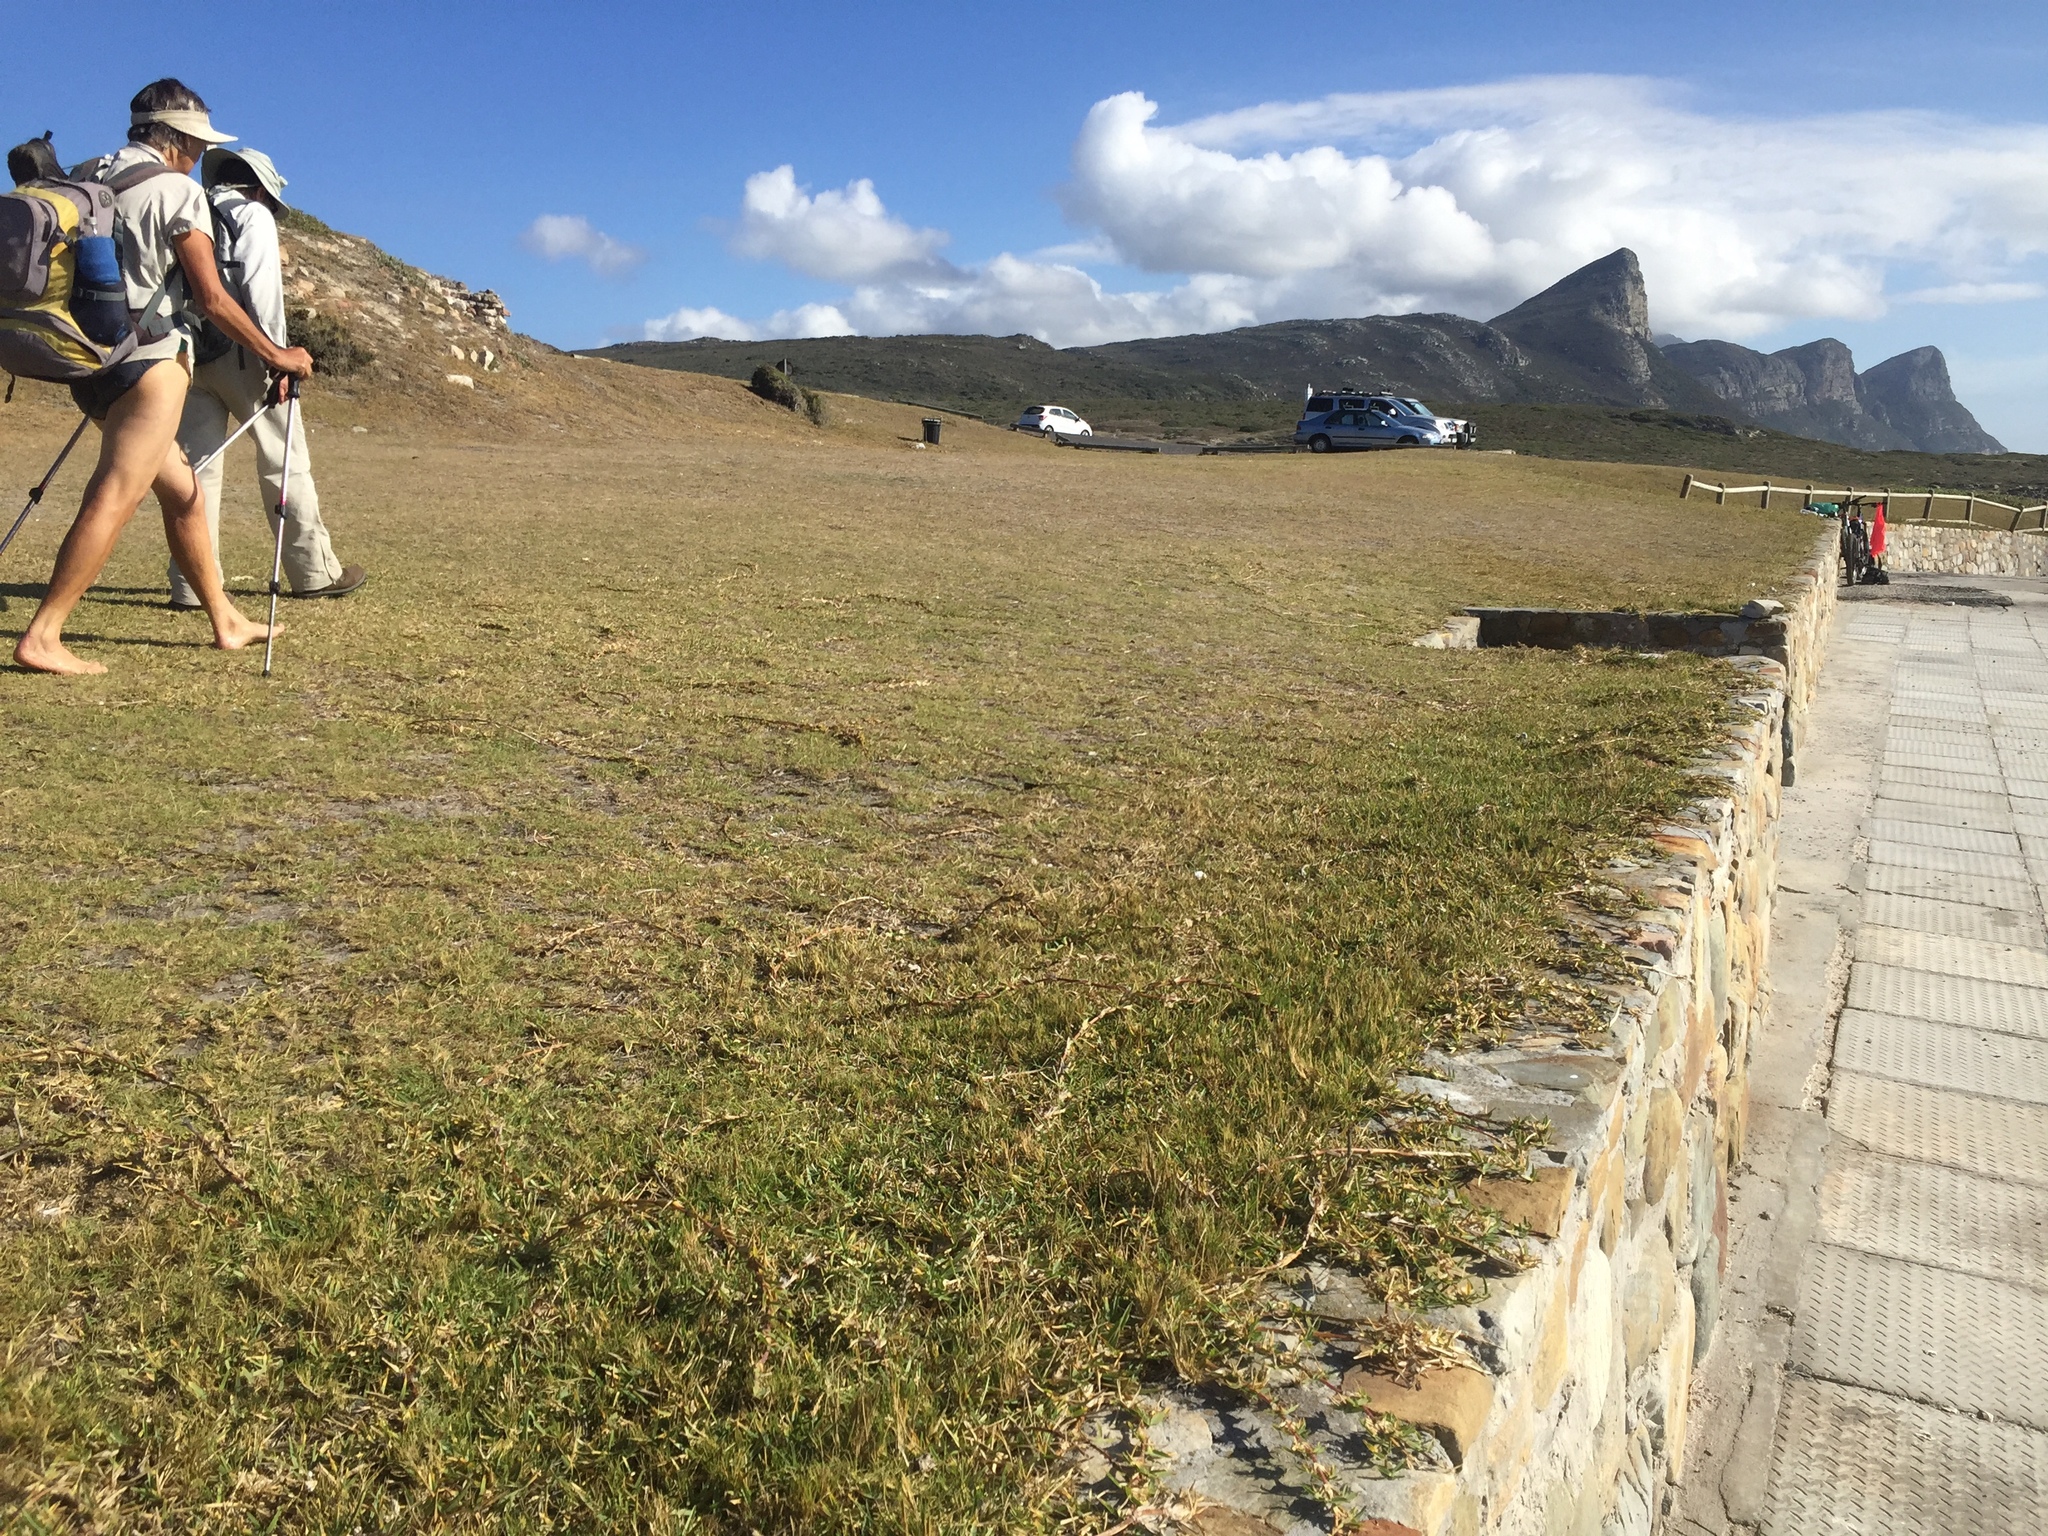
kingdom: Plantae
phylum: Tracheophyta
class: Liliopsida
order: Poales
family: Poaceae
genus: Stenotaphrum
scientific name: Stenotaphrum secundatum
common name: St. augustine grass
